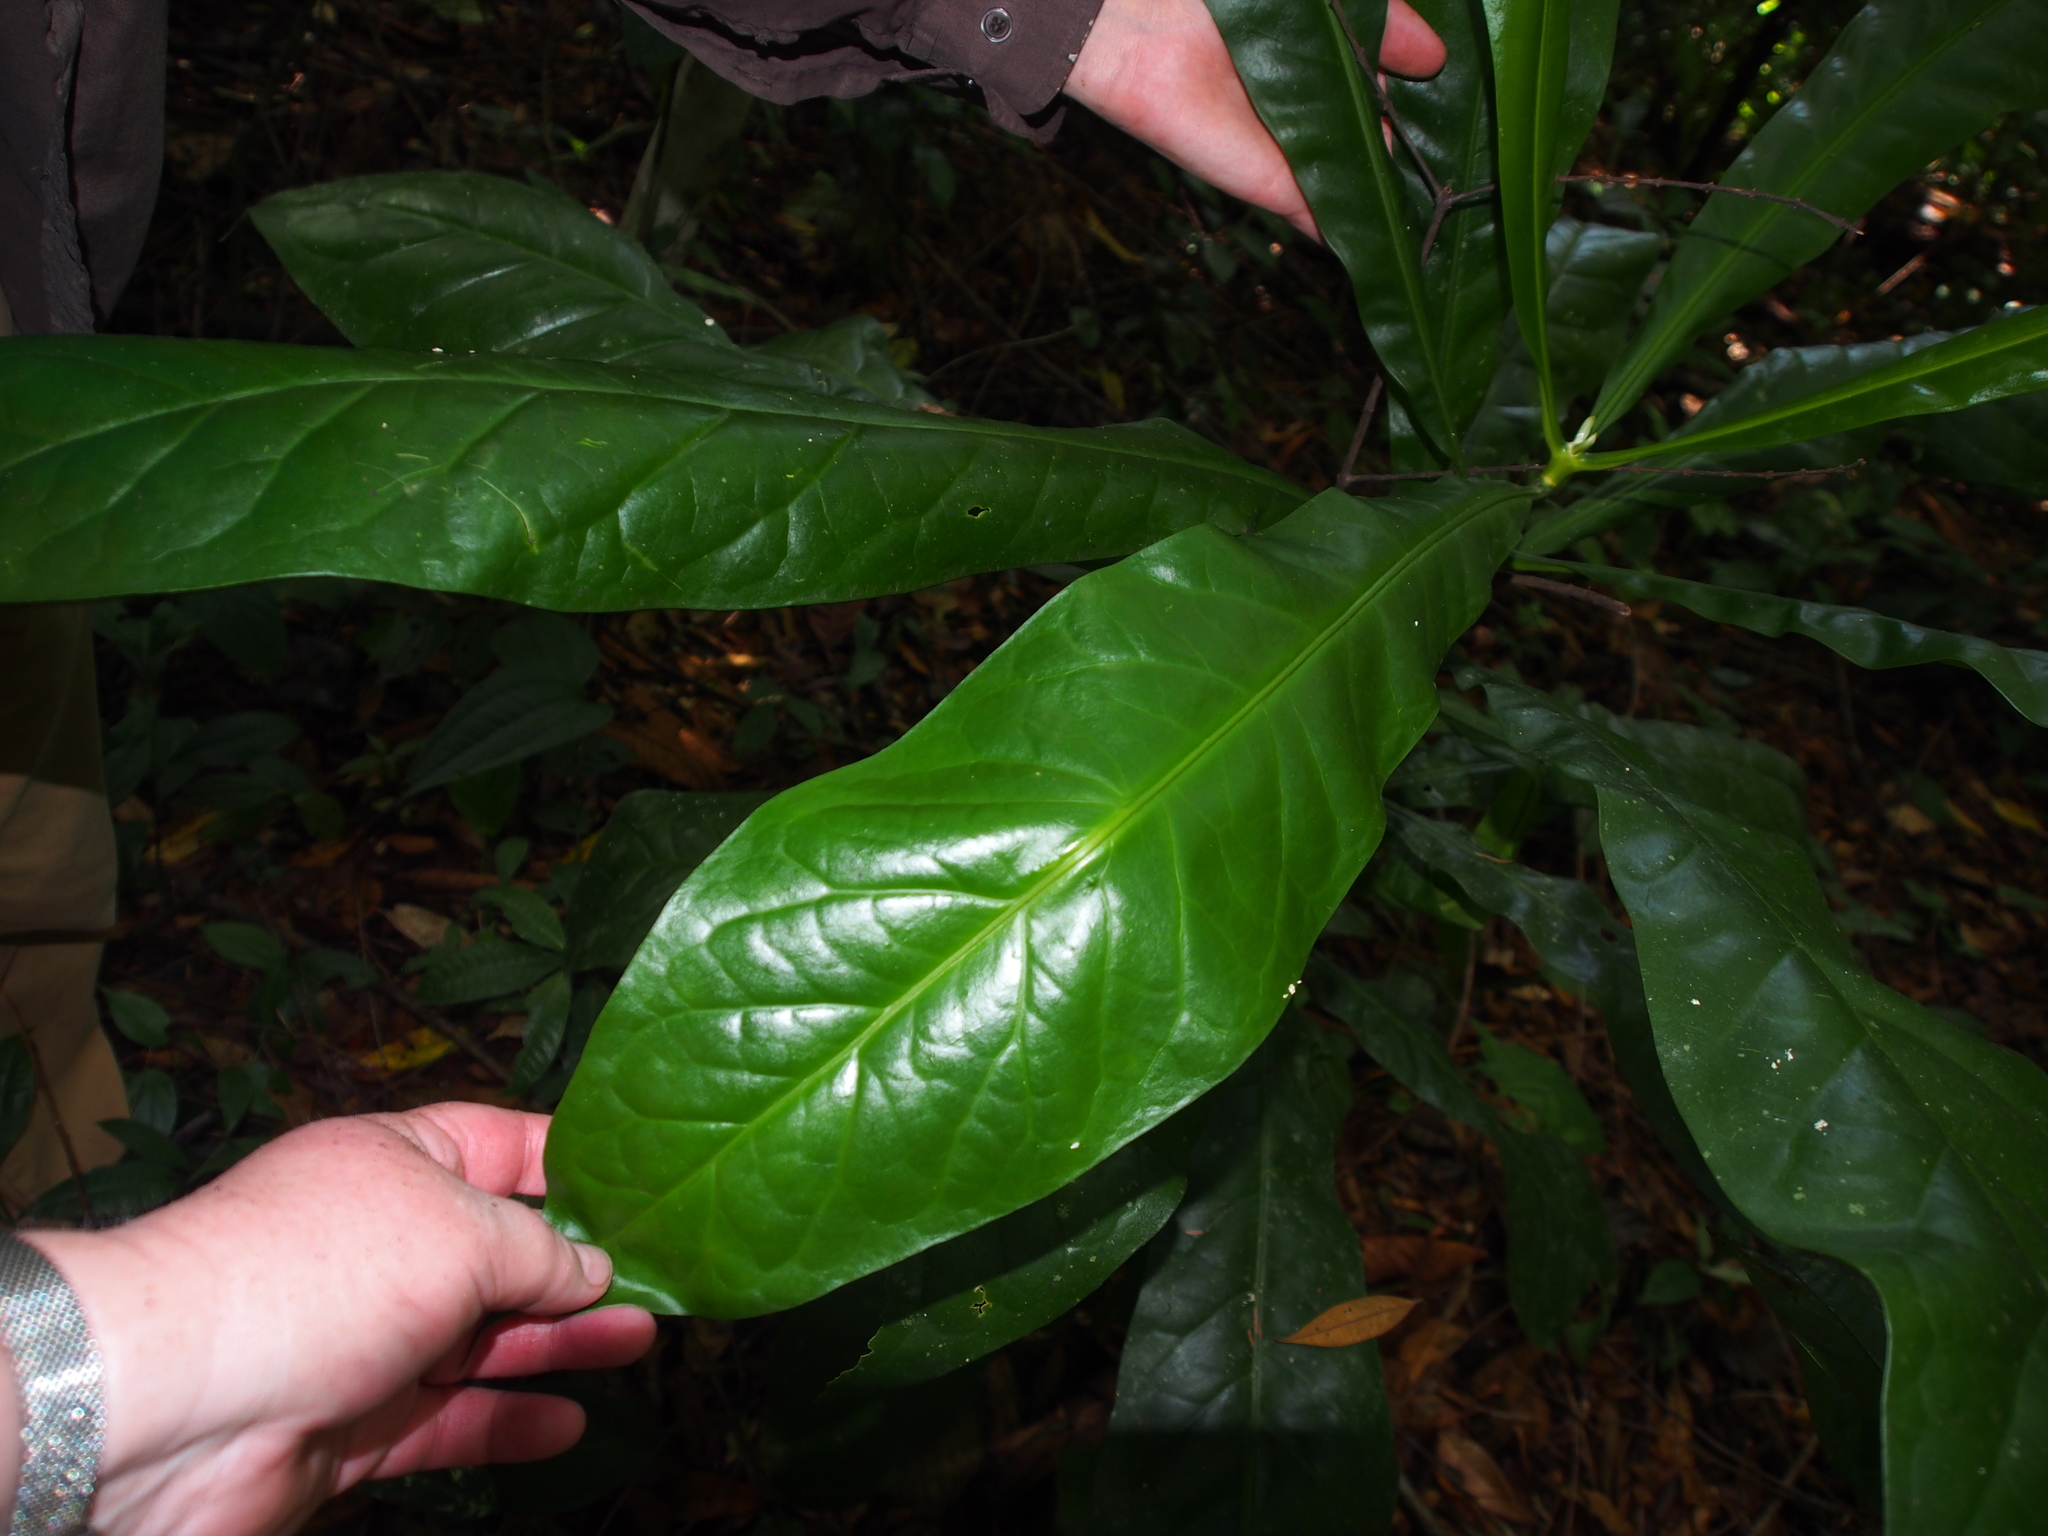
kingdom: Plantae
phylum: Tracheophyta
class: Magnoliopsida
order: Gentianales
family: Gentianaceae
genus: Potalia
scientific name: Potalia turbinata
